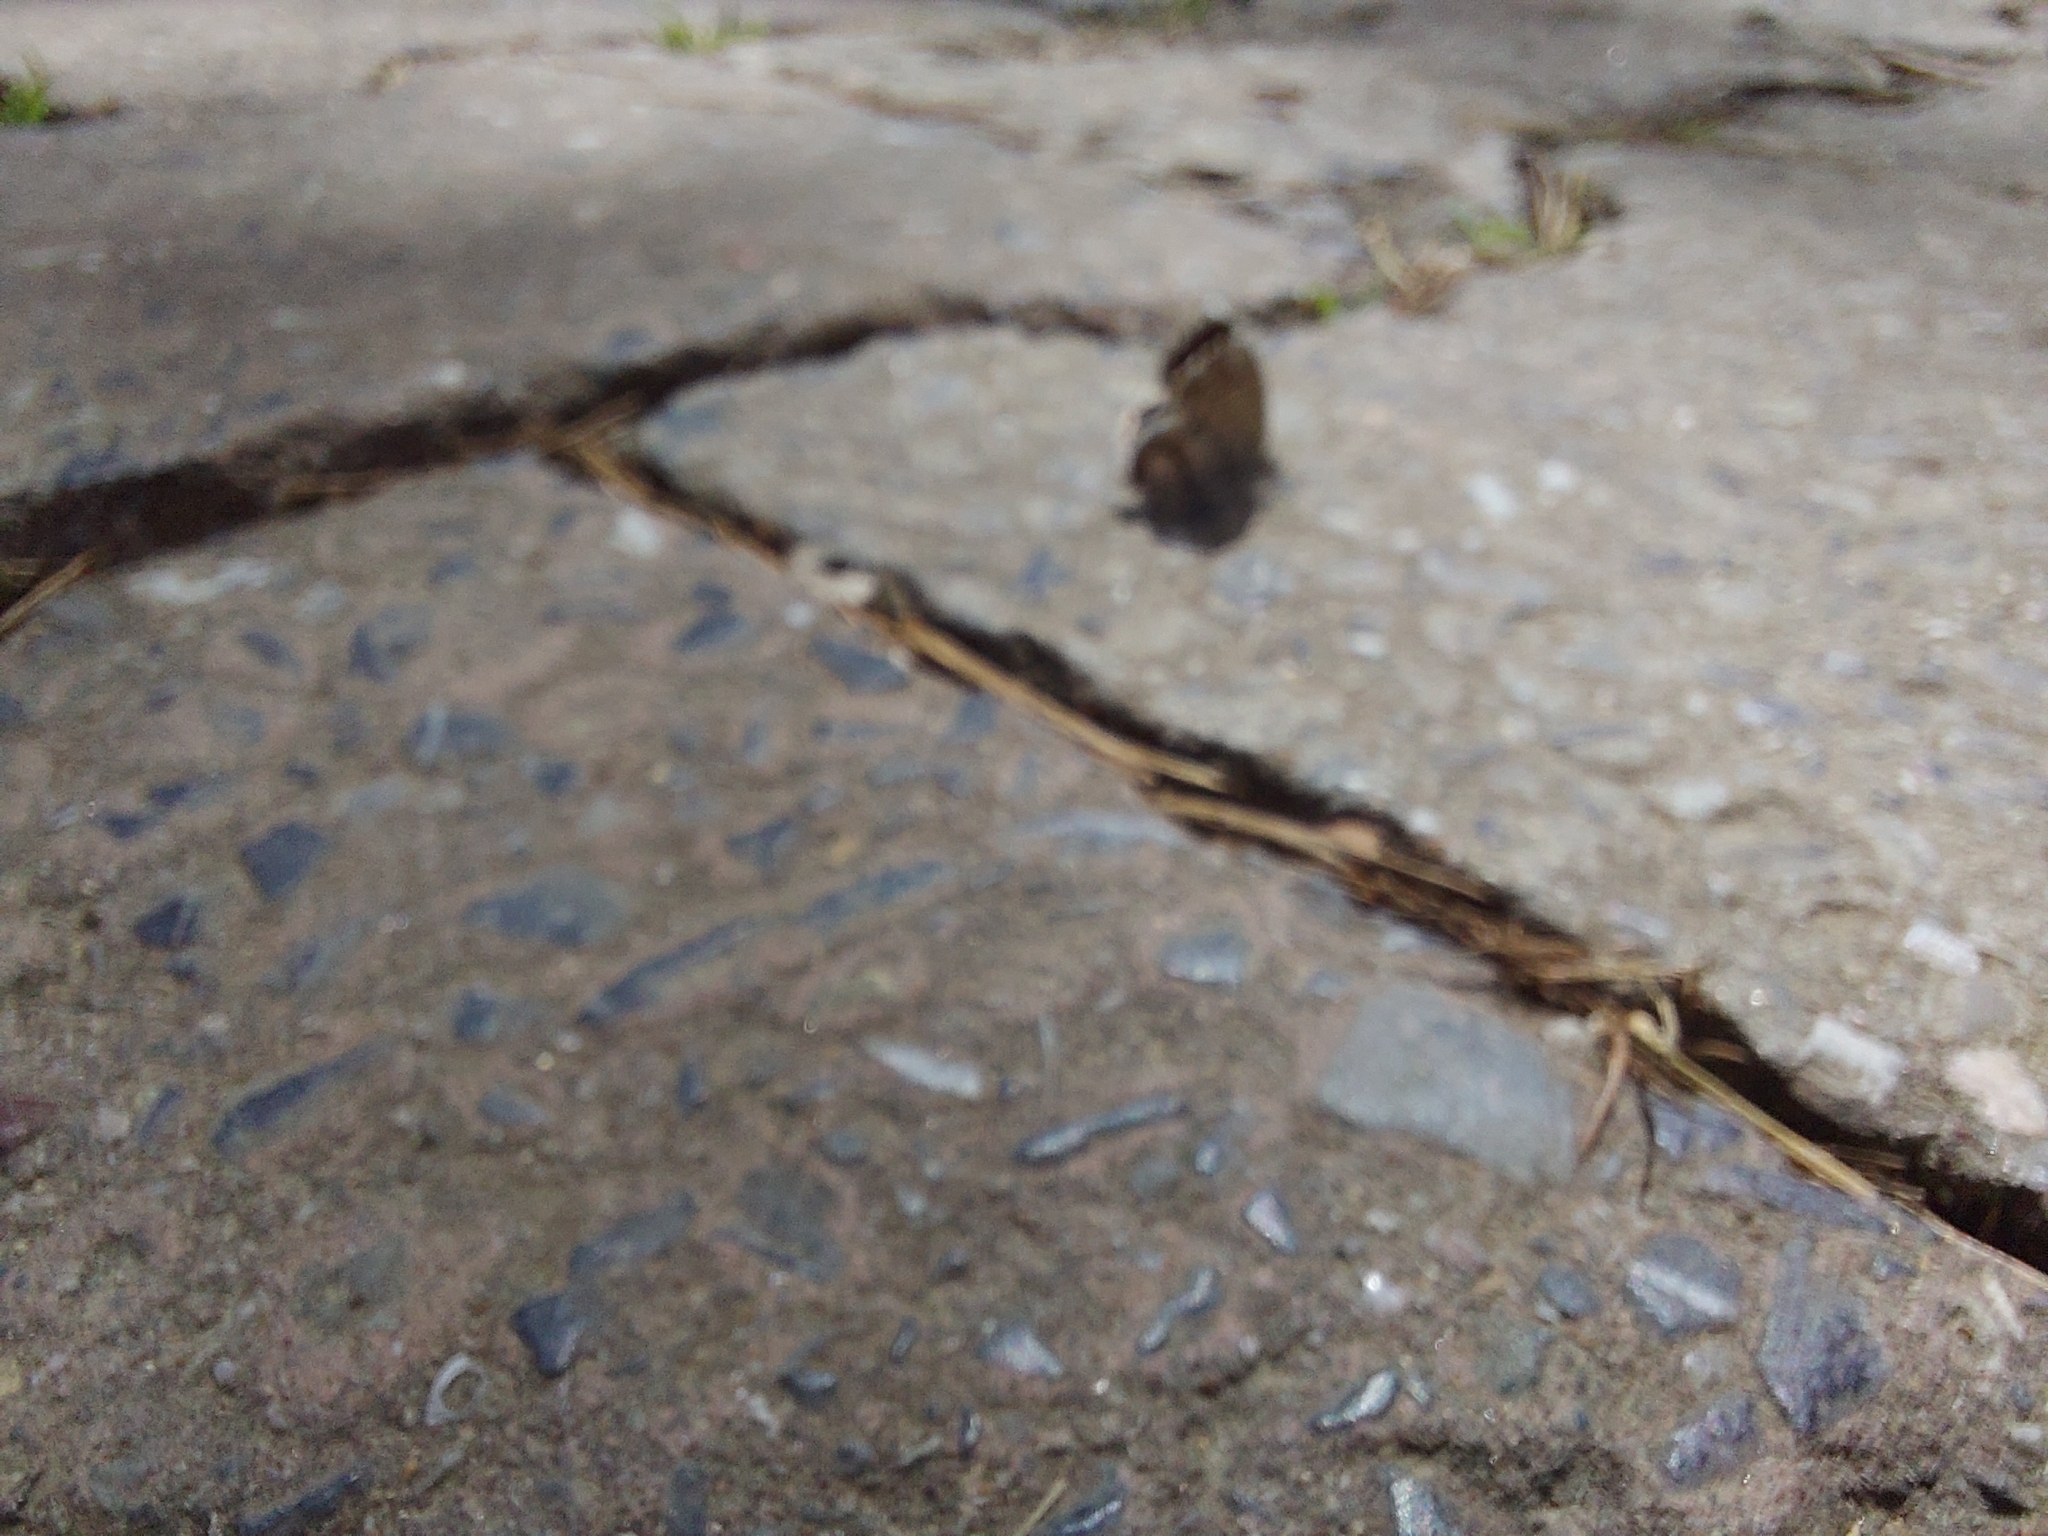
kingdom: Animalia
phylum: Arthropoda
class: Insecta
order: Lepidoptera
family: Lycaenidae
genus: Cacyreus
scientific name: Cacyreus marshalli
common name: Geranium bronze
